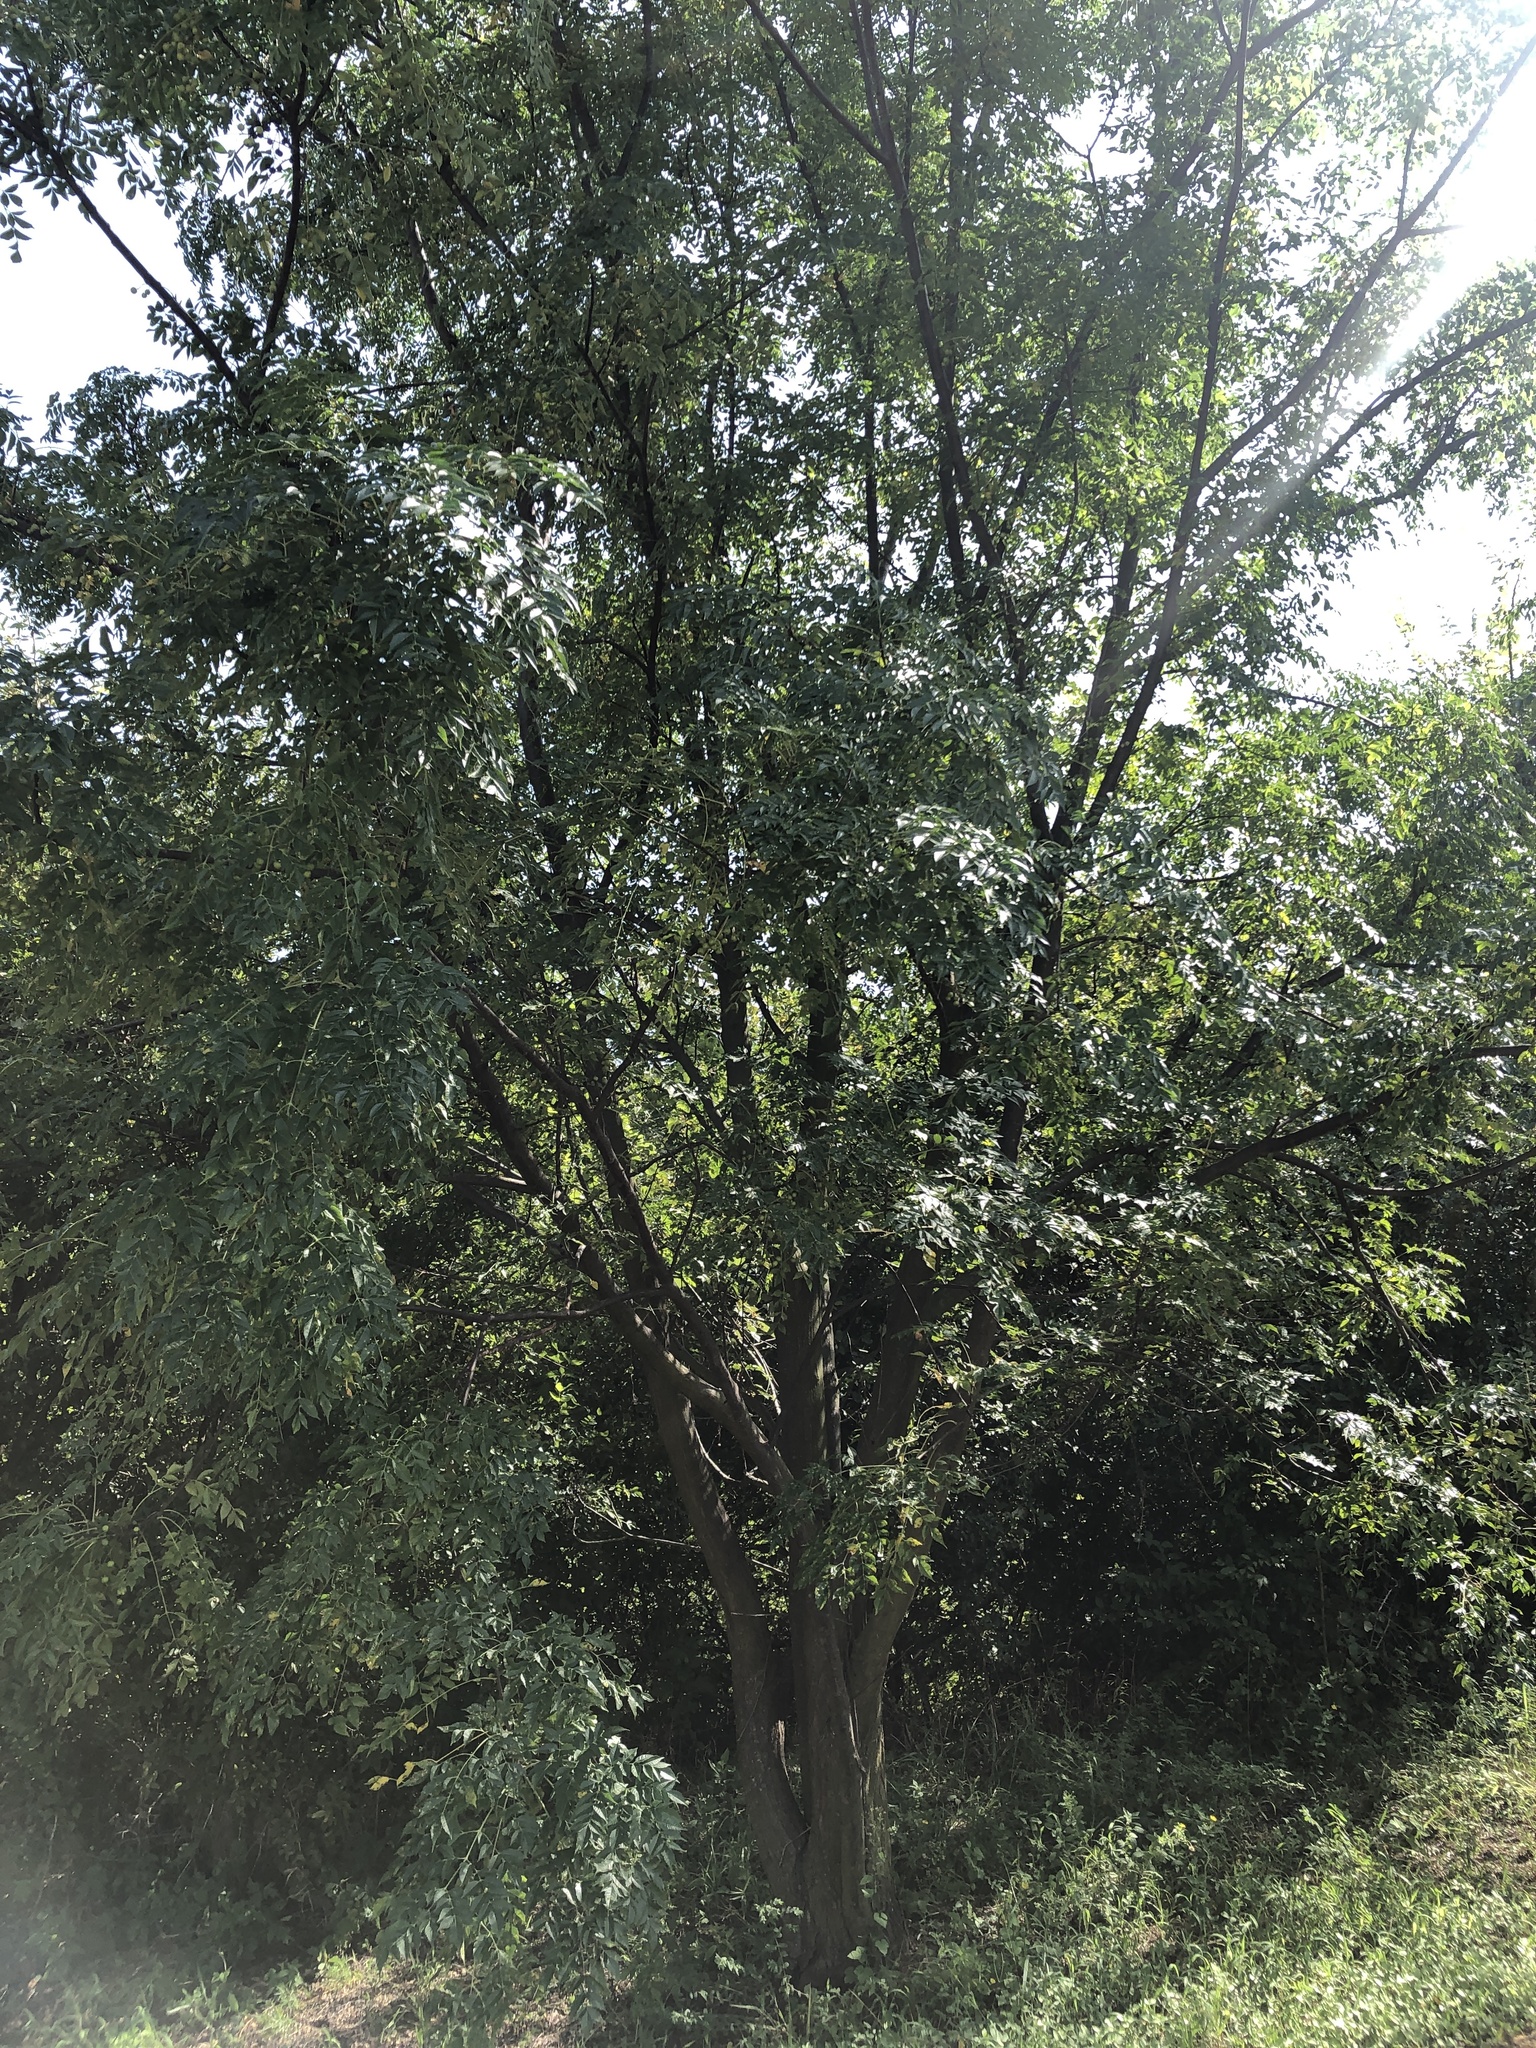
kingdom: Plantae
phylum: Tracheophyta
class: Magnoliopsida
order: Sapindales
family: Meliaceae
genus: Melia
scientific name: Melia azedarach
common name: Chinaberrytree
